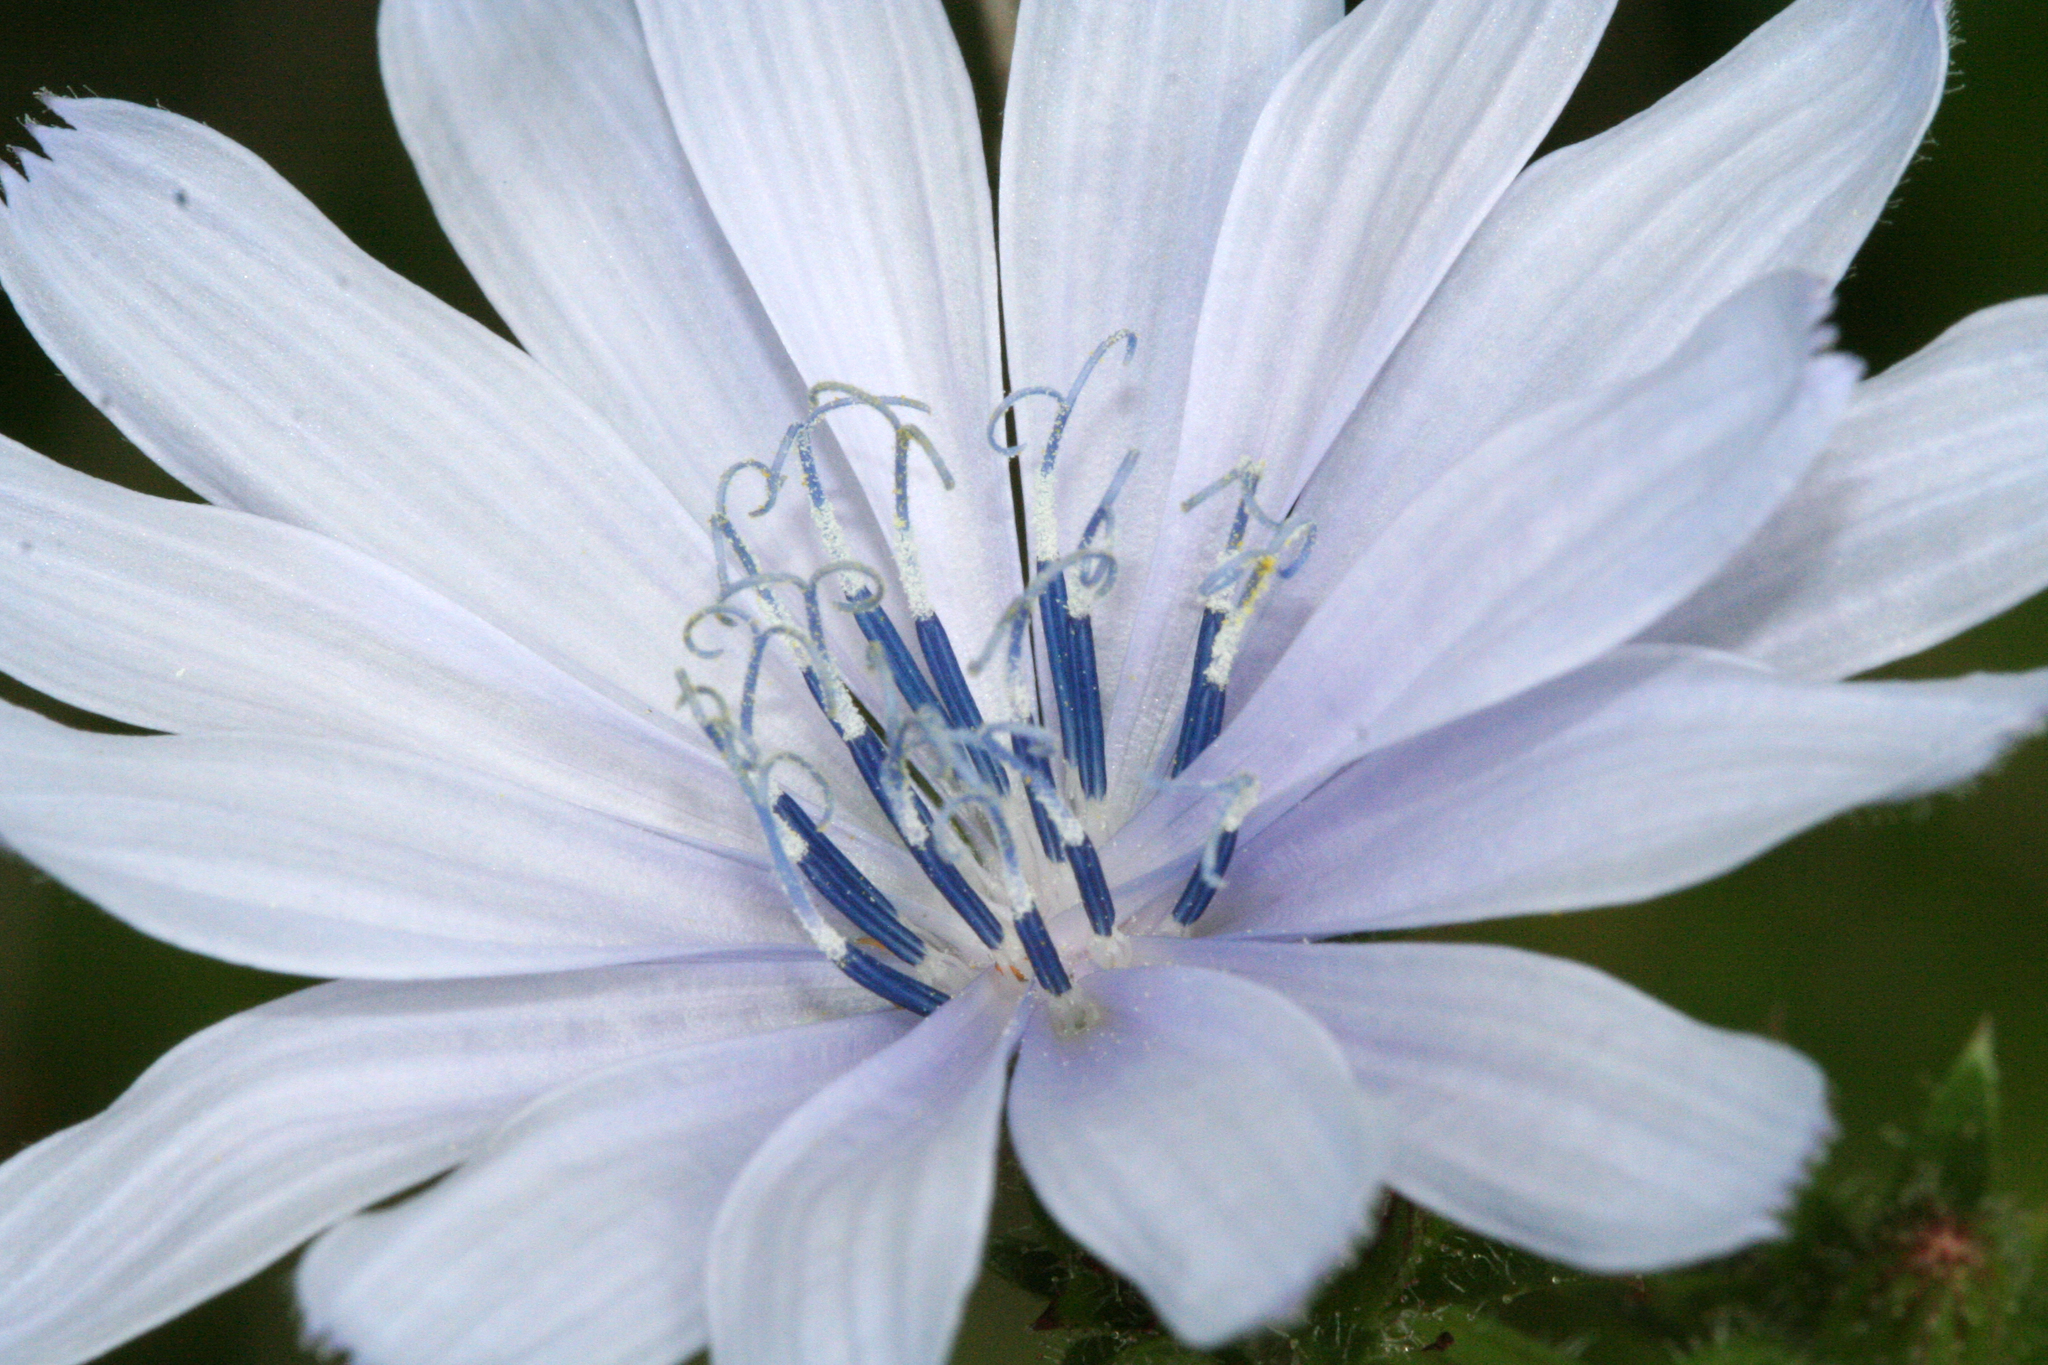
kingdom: Plantae
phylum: Tracheophyta
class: Magnoliopsida
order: Asterales
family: Asteraceae
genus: Cichorium
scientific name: Cichorium intybus
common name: Chicory
